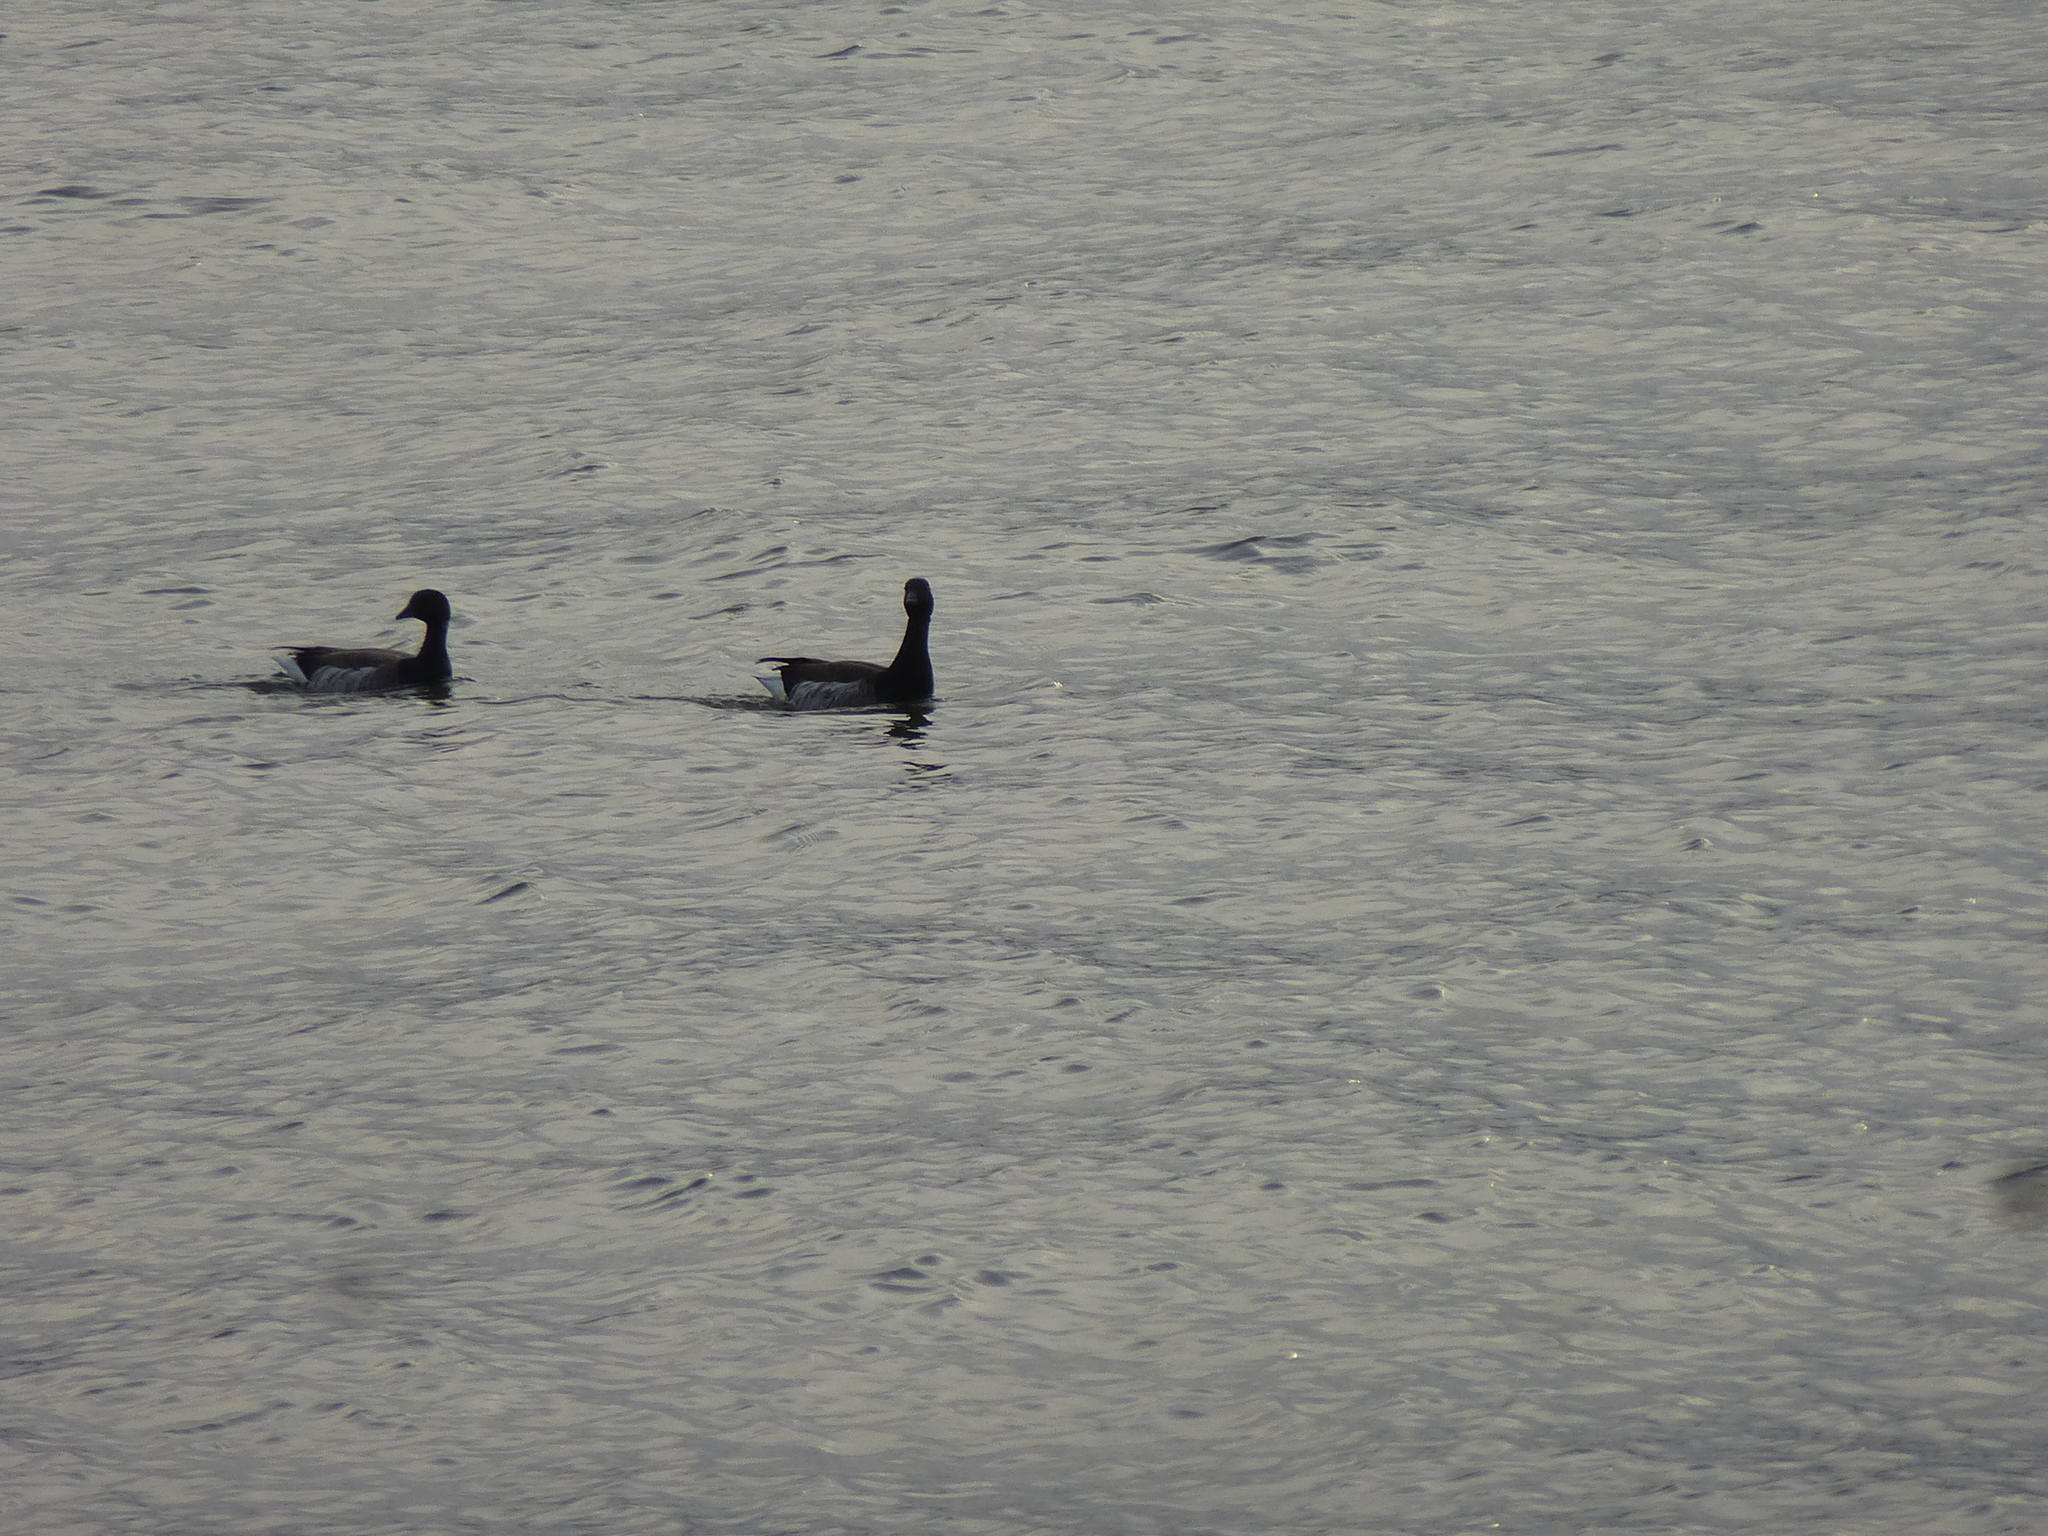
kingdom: Animalia
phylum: Chordata
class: Aves
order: Anseriformes
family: Anatidae
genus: Branta
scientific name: Branta bernicla
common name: Brant goose
